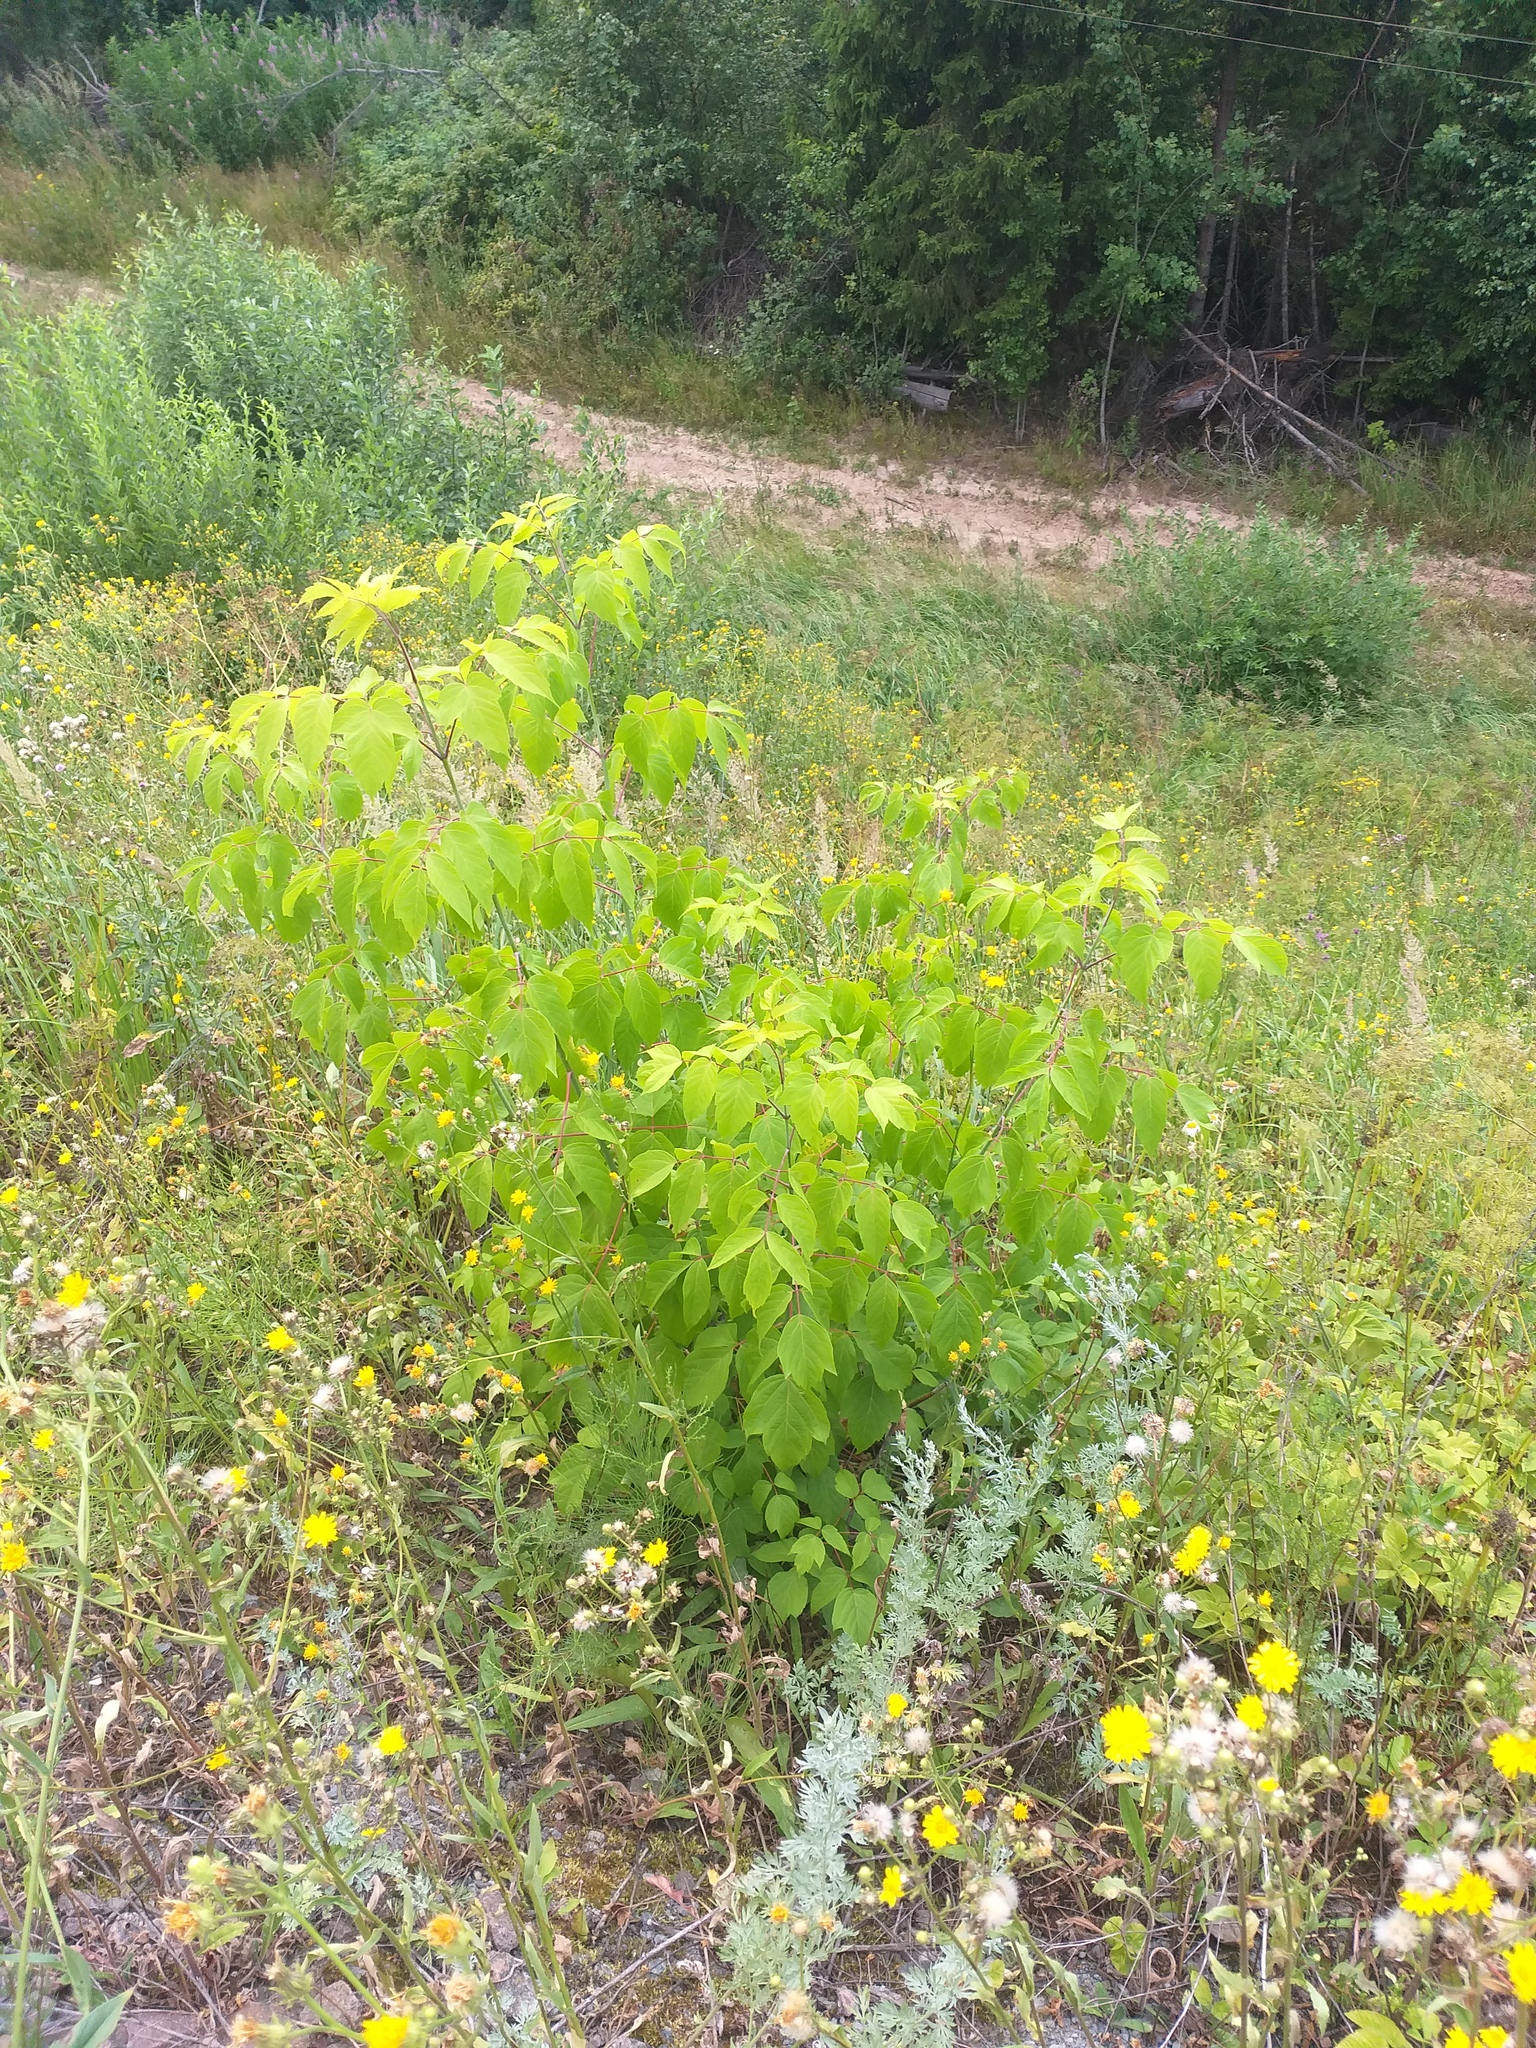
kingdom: Plantae
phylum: Tracheophyta
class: Magnoliopsida
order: Sapindales
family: Sapindaceae
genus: Acer
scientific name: Acer negundo
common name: Ashleaf maple
